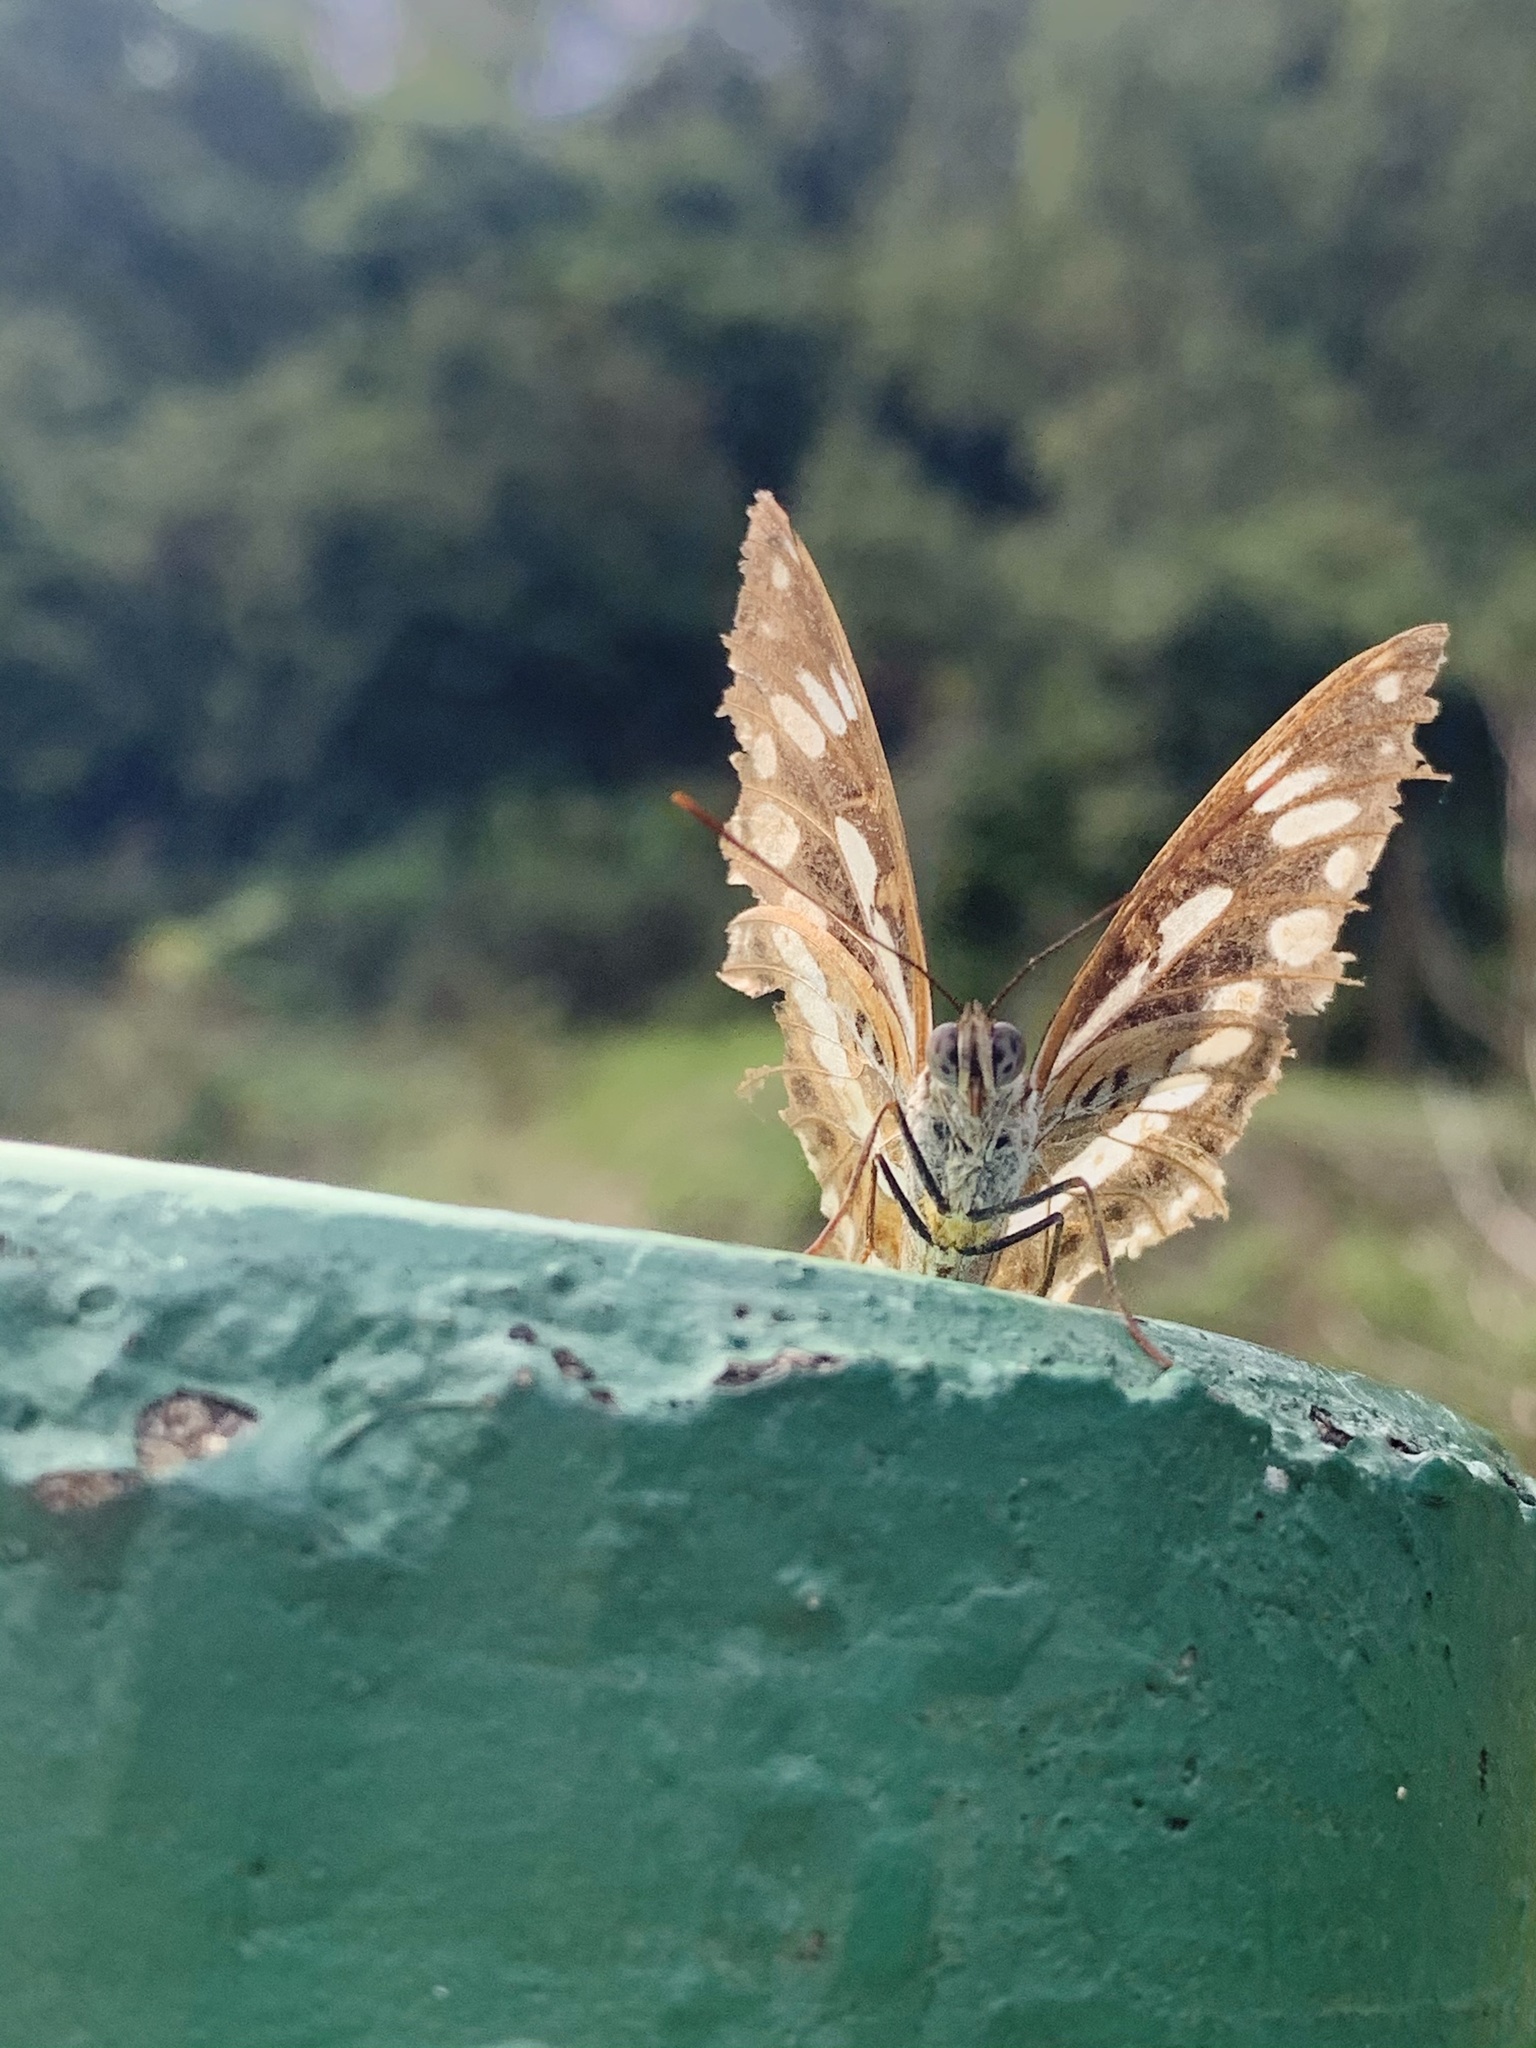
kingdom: Animalia
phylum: Arthropoda
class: Insecta
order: Lepidoptera
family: Nymphalidae
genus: Limenitis
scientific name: Limenitis sulpitia
